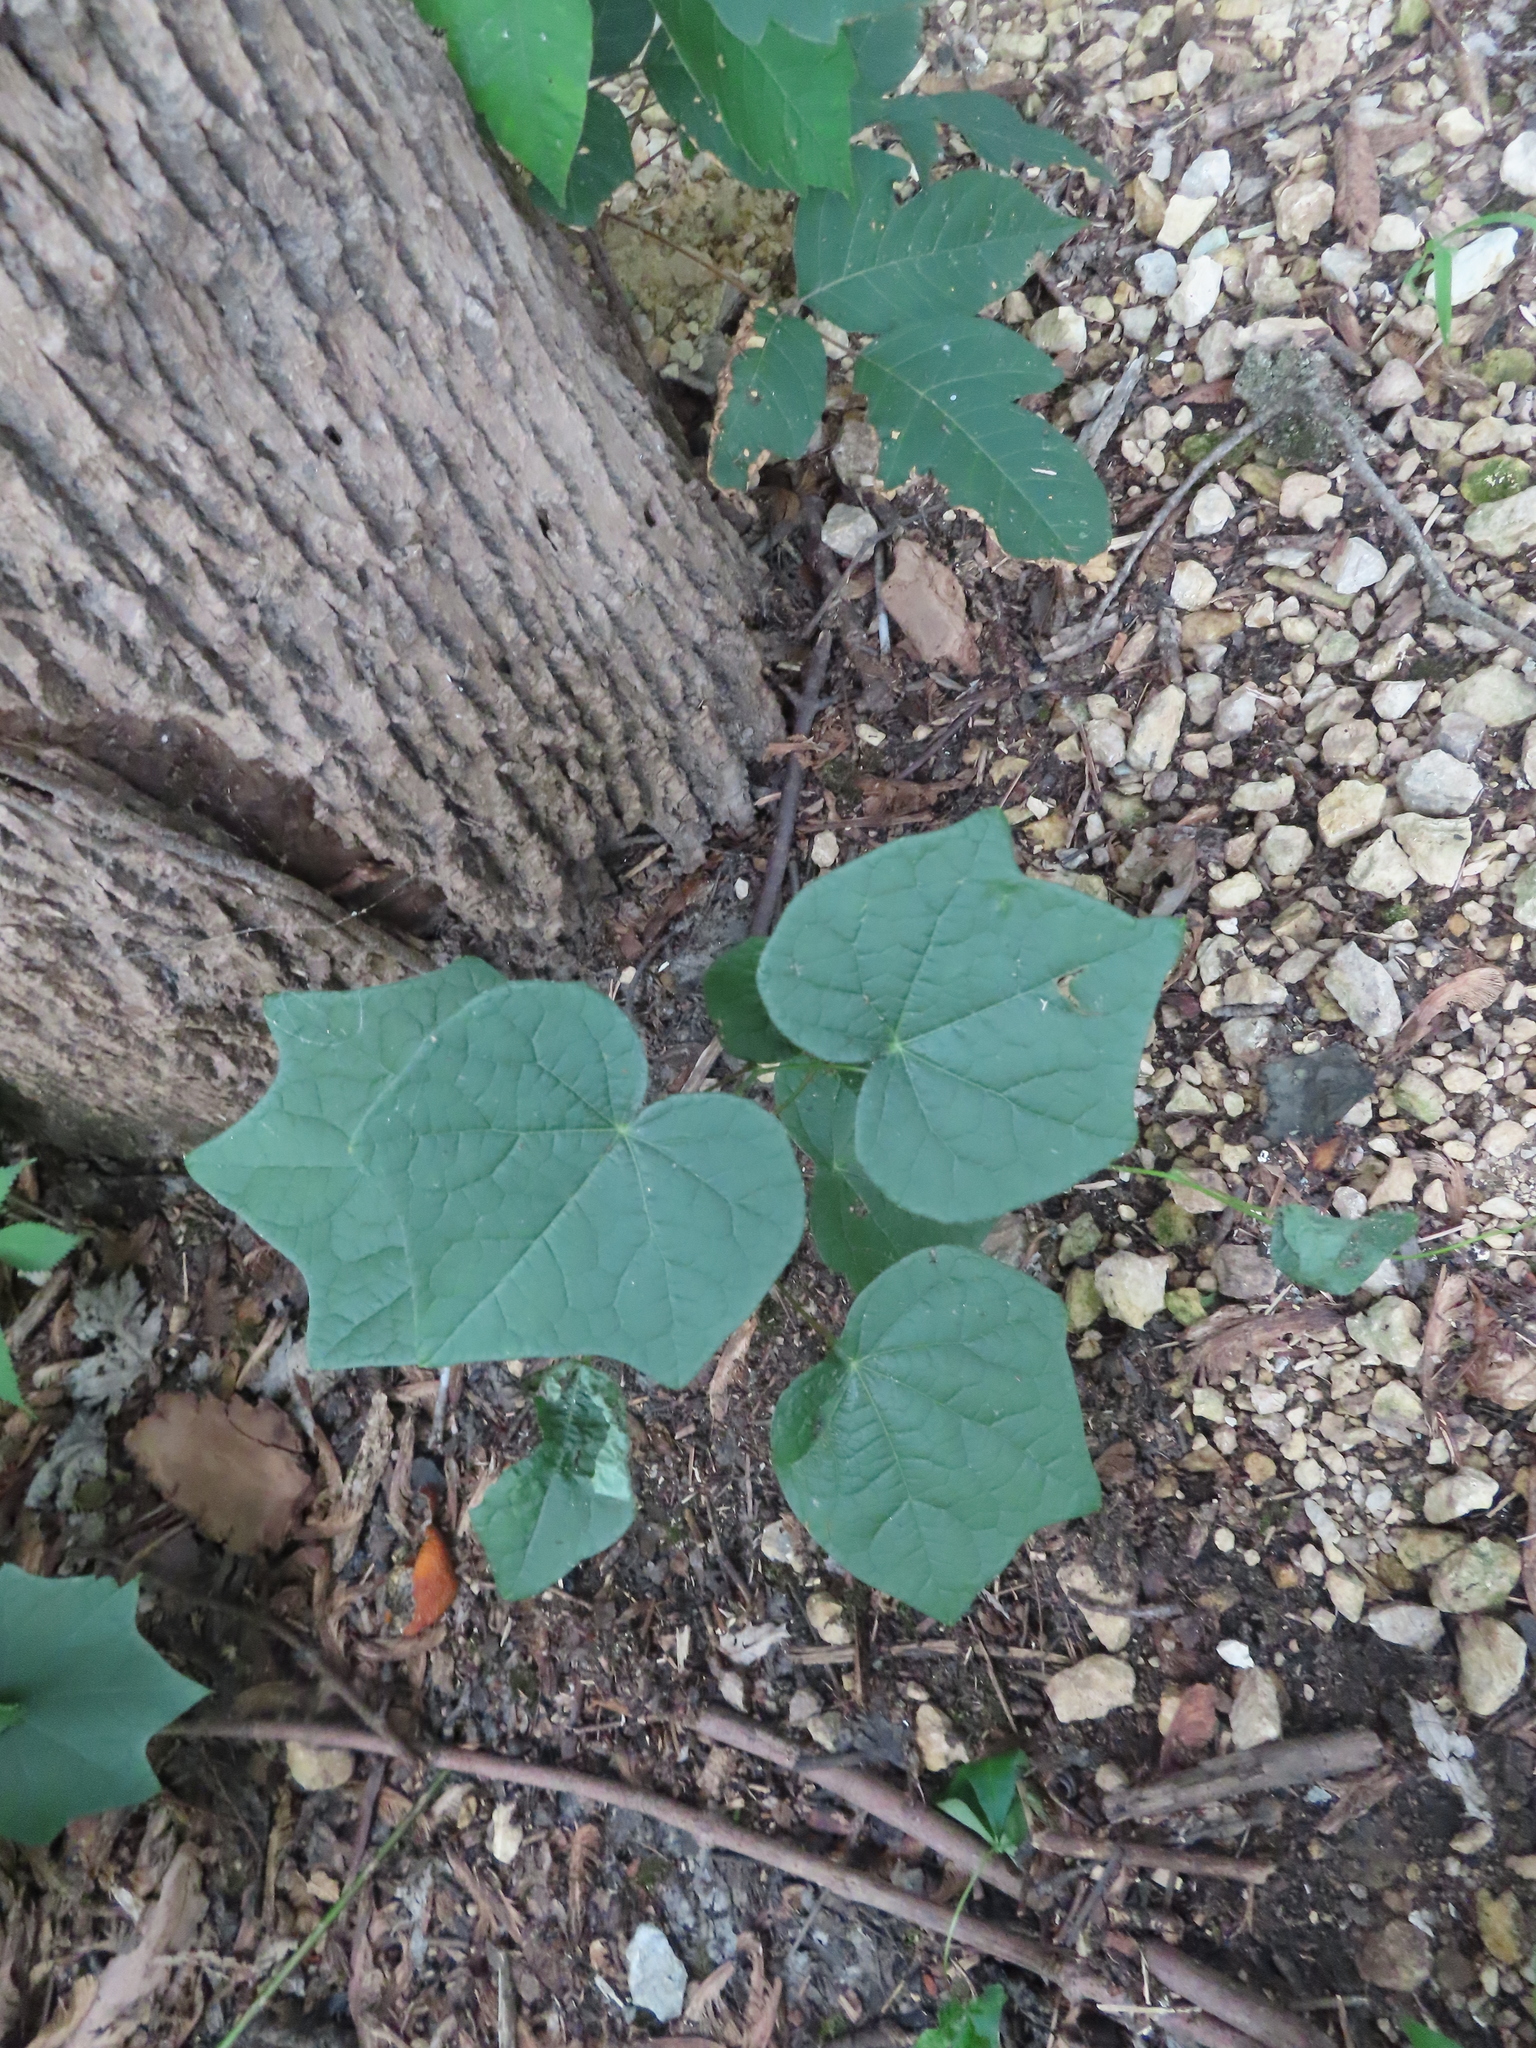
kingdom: Plantae
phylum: Tracheophyta
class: Magnoliopsida
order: Ranunculales
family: Menispermaceae
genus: Menispermum
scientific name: Menispermum canadense
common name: Moonseed
